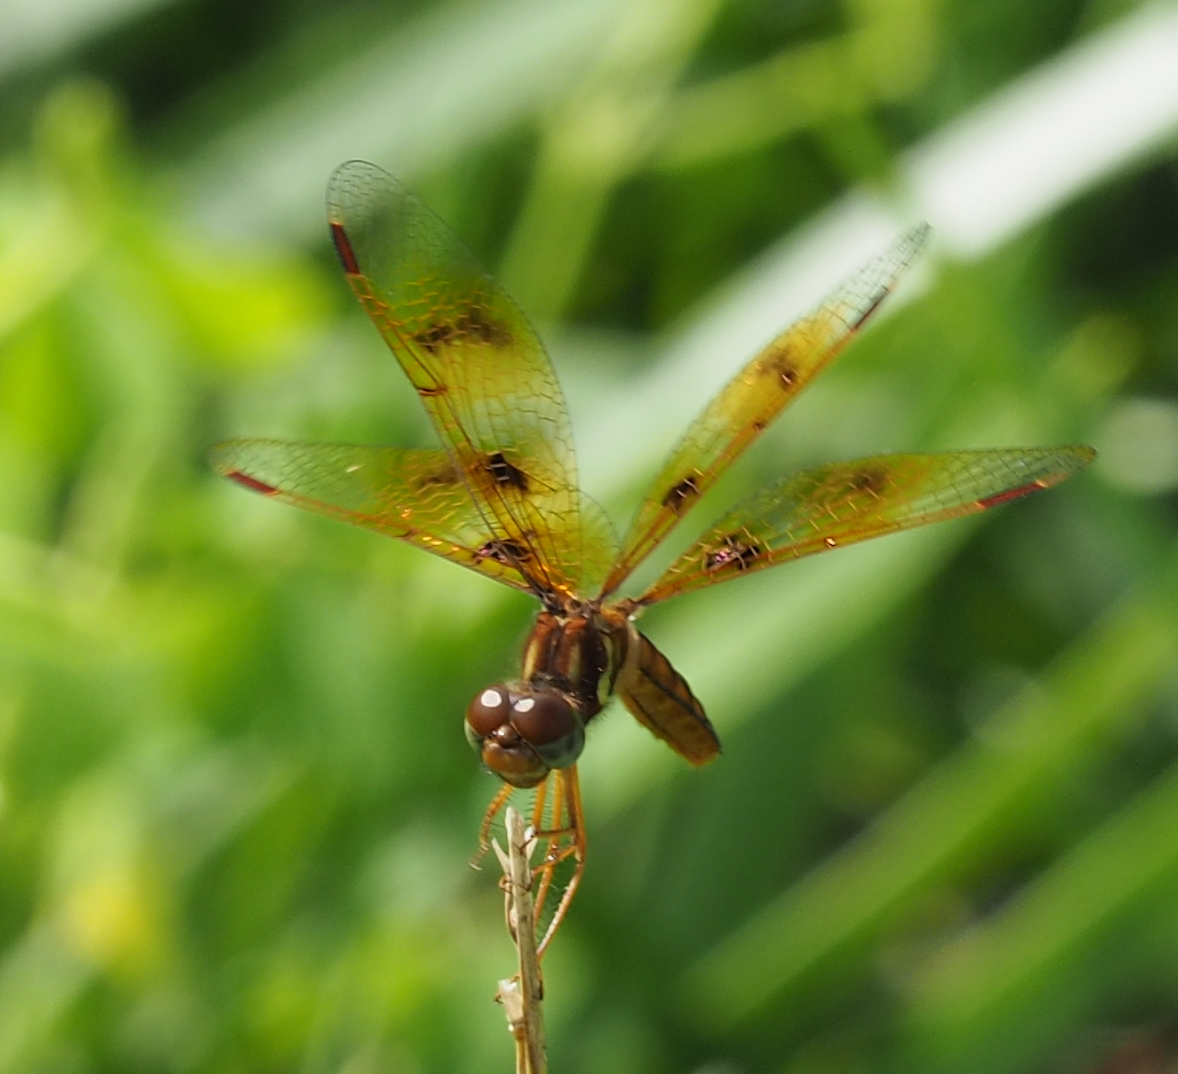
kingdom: Animalia
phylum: Arthropoda
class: Insecta
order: Odonata
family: Libellulidae
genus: Perithemis
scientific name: Perithemis tenera
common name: Eastern amberwing
